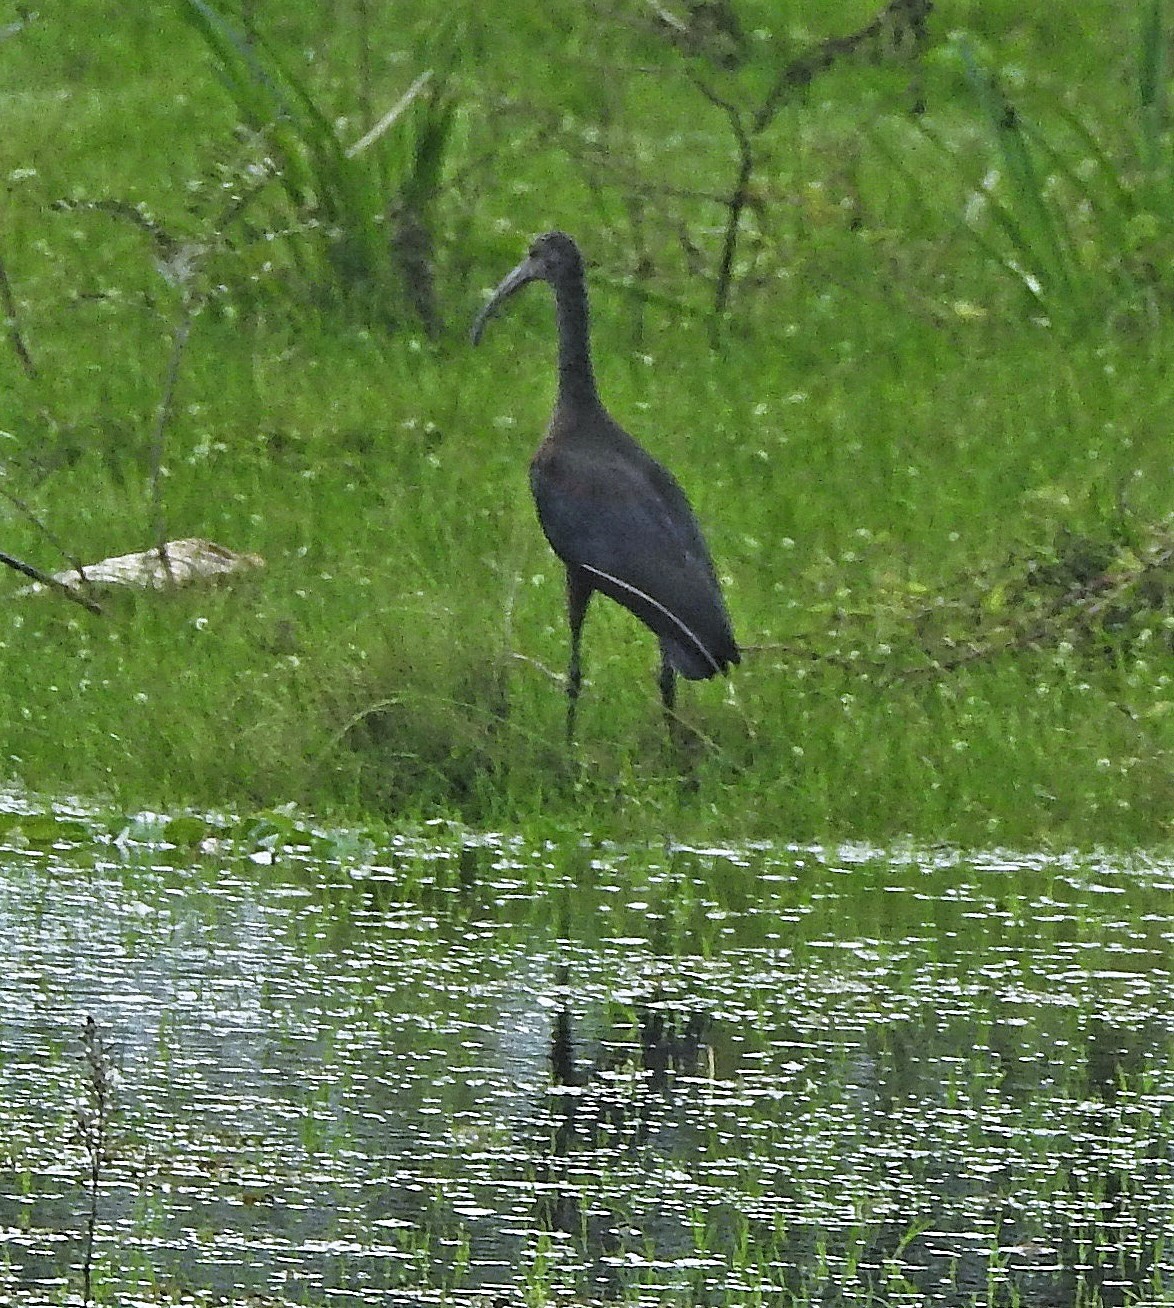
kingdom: Animalia
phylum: Chordata
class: Aves
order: Pelecaniformes
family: Threskiornithidae
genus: Plegadis
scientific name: Plegadis chihi
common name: White-faced ibis
